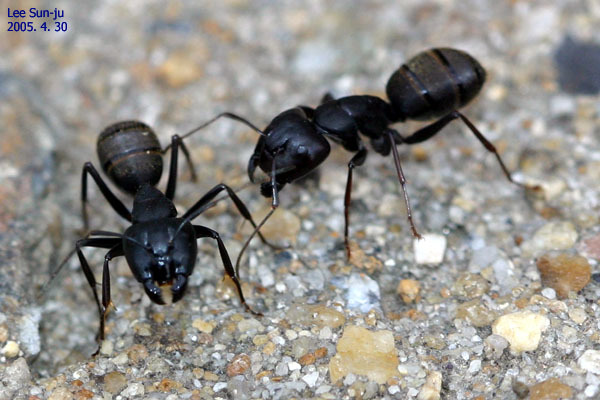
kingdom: Animalia
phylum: Arthropoda
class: Insecta
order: Hymenoptera
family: Formicidae
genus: Camponotus
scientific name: Camponotus japonicus
